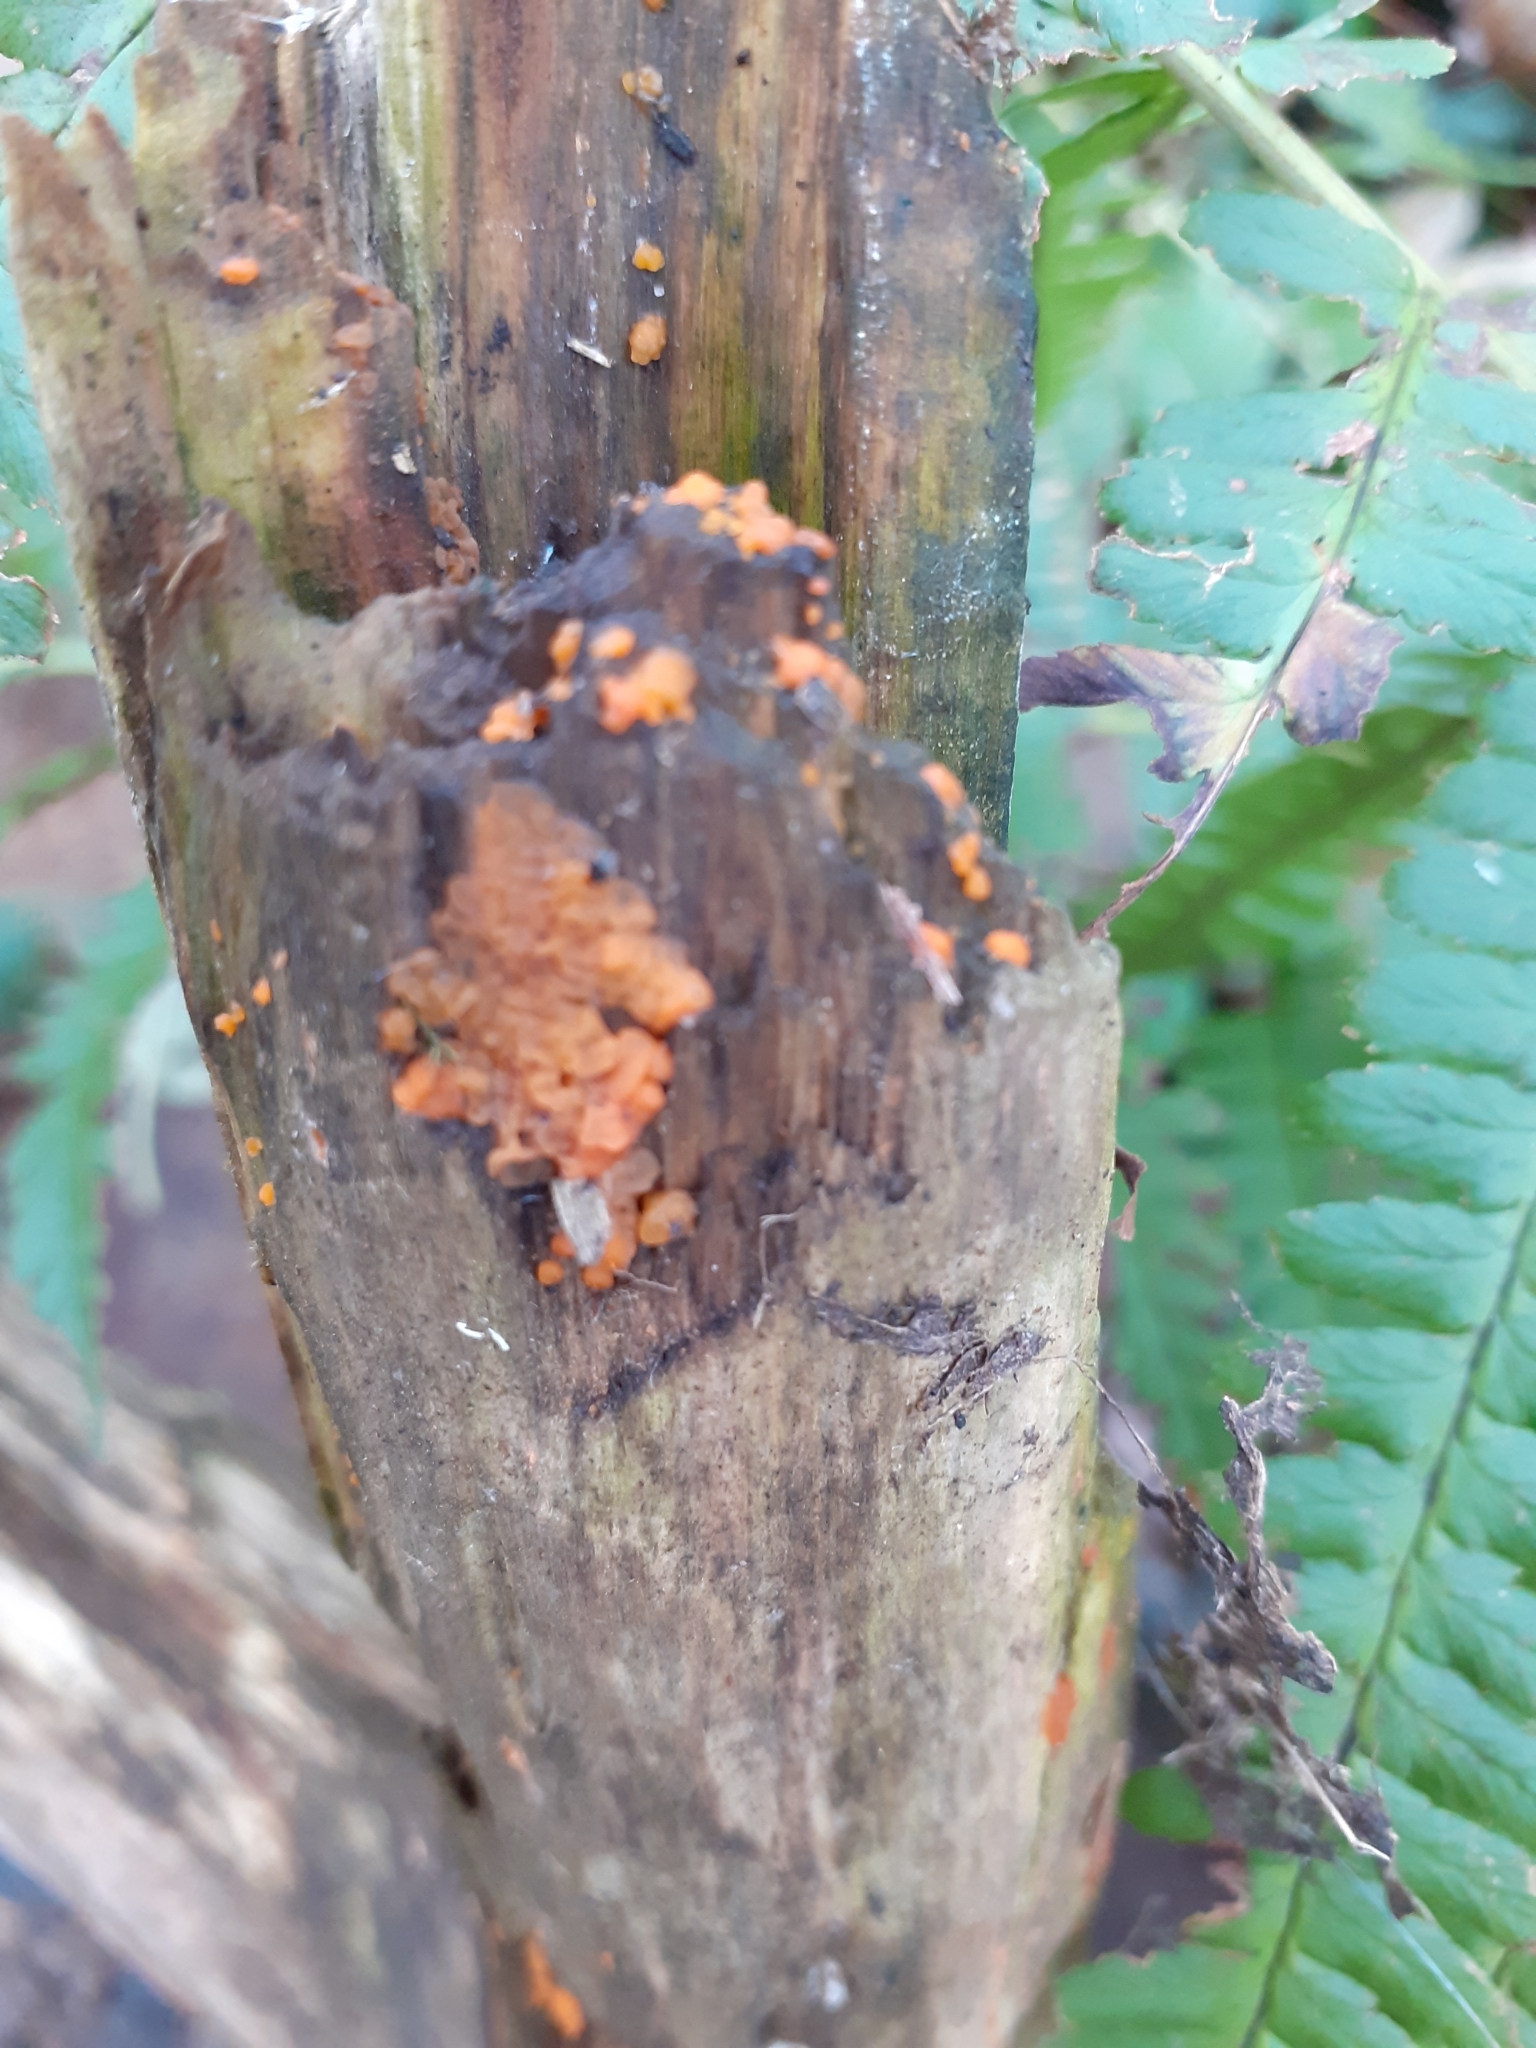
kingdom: Fungi
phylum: Basidiomycota
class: Dacrymycetes
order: Dacrymycetales
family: Dacrymycetaceae
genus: Dacrymyces
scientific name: Dacrymyces stillatus
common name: Common jelly spot
